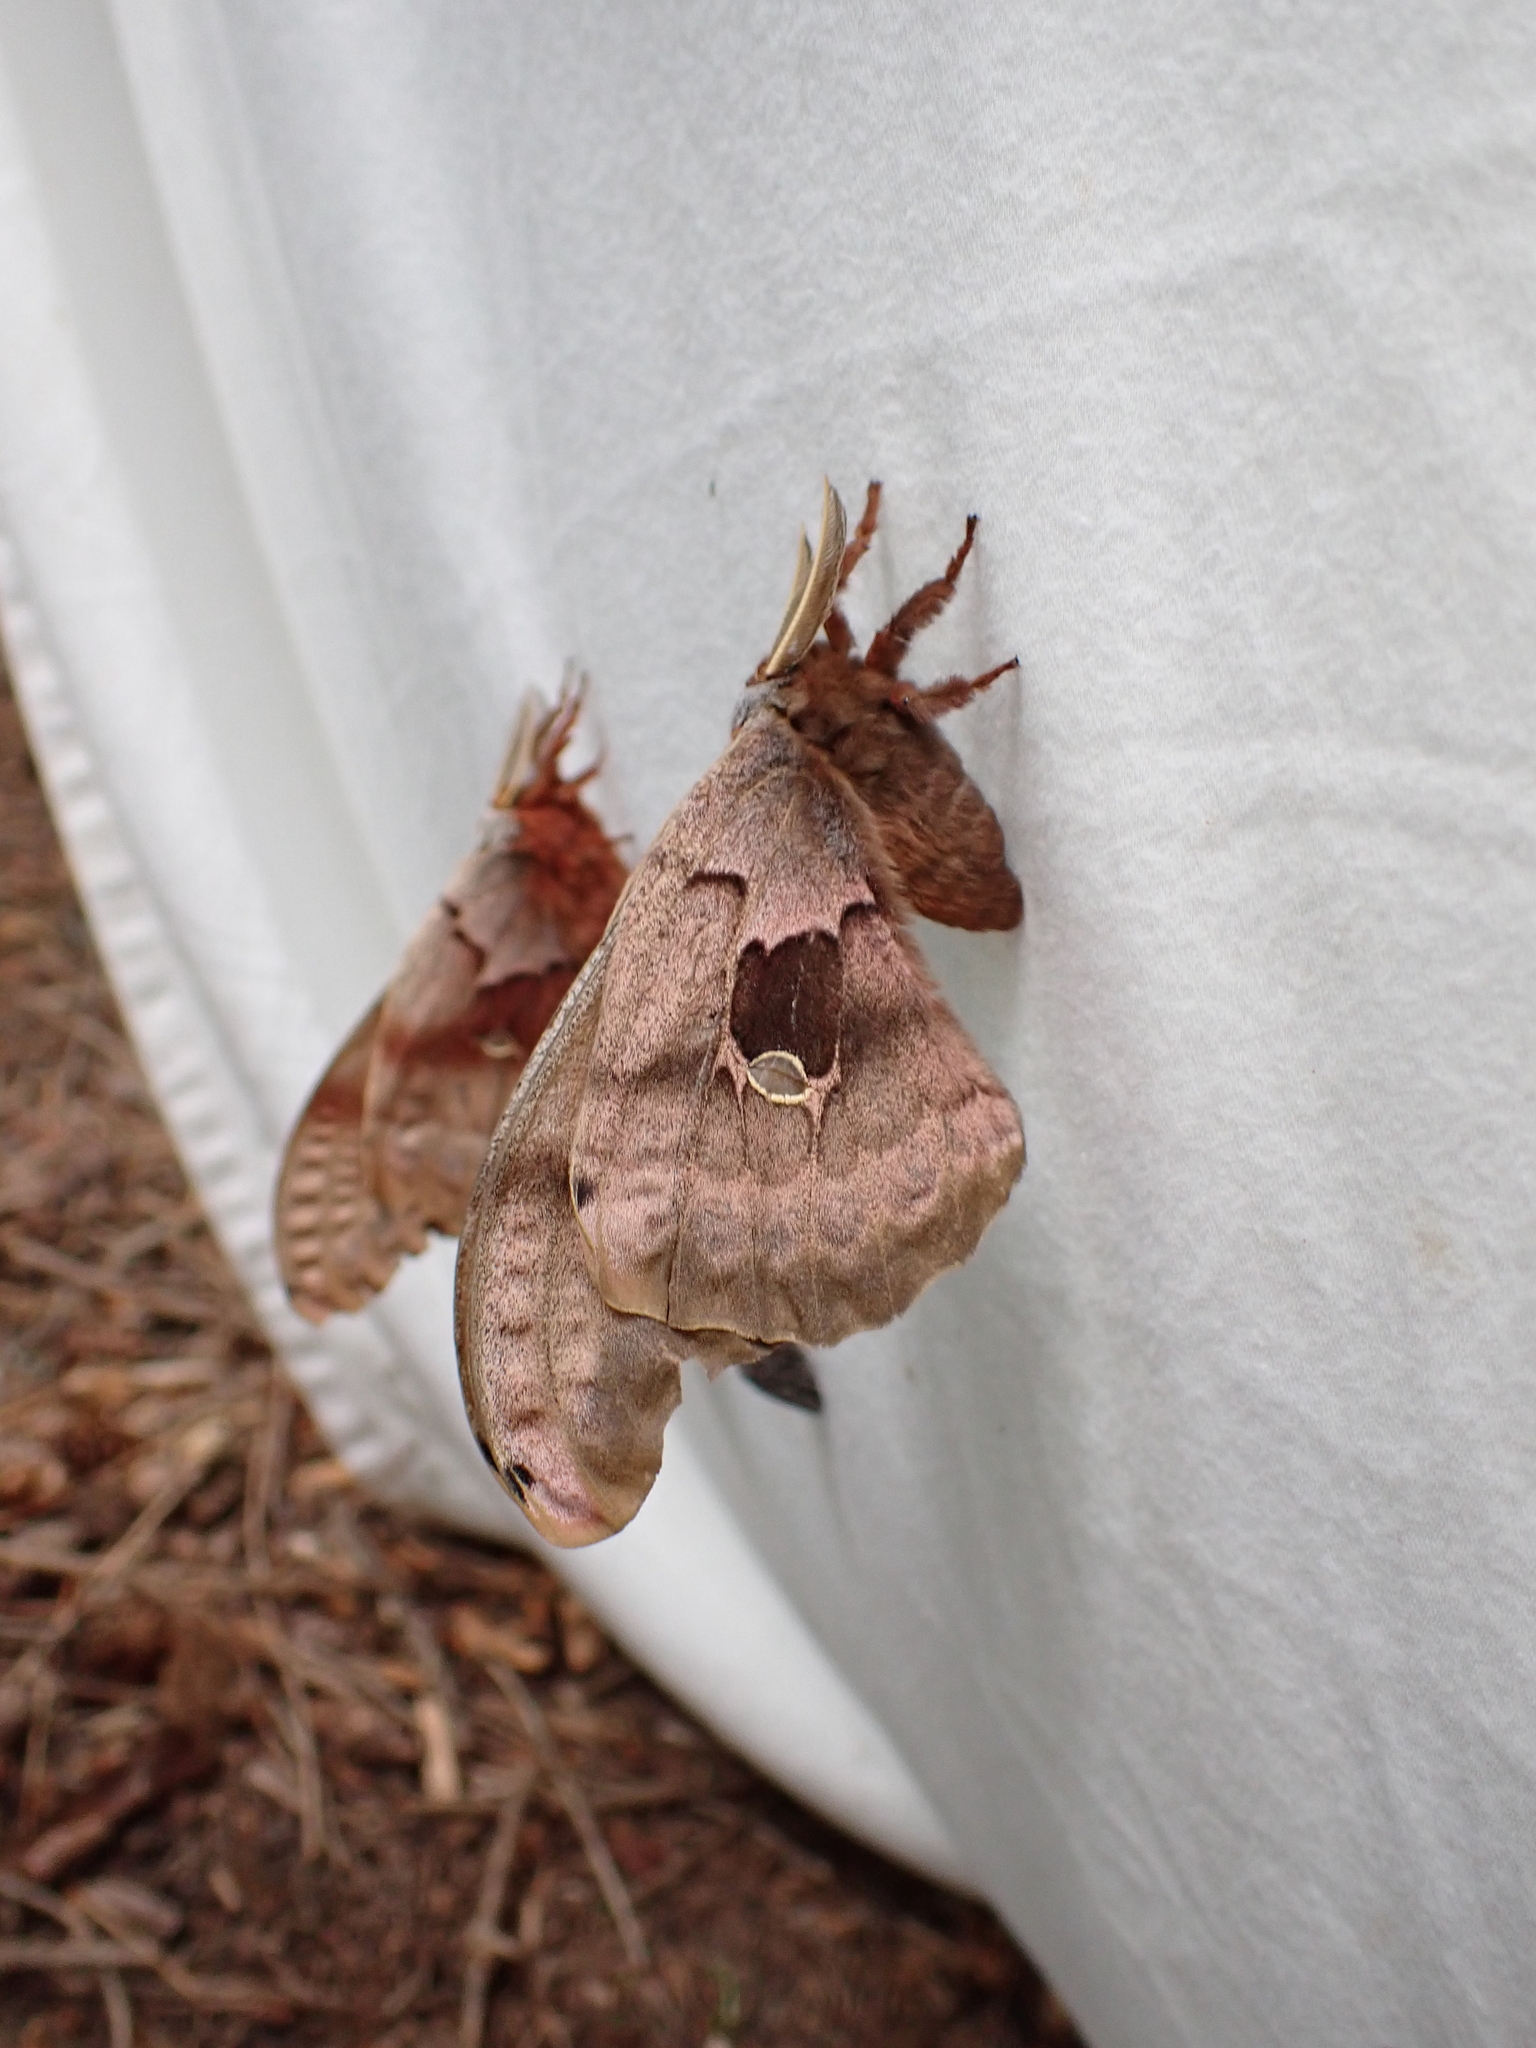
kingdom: Animalia
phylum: Arthropoda
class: Insecta
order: Lepidoptera
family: Saturniidae
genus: Antheraea
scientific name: Antheraea polyphemus
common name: Polyphemus moth
